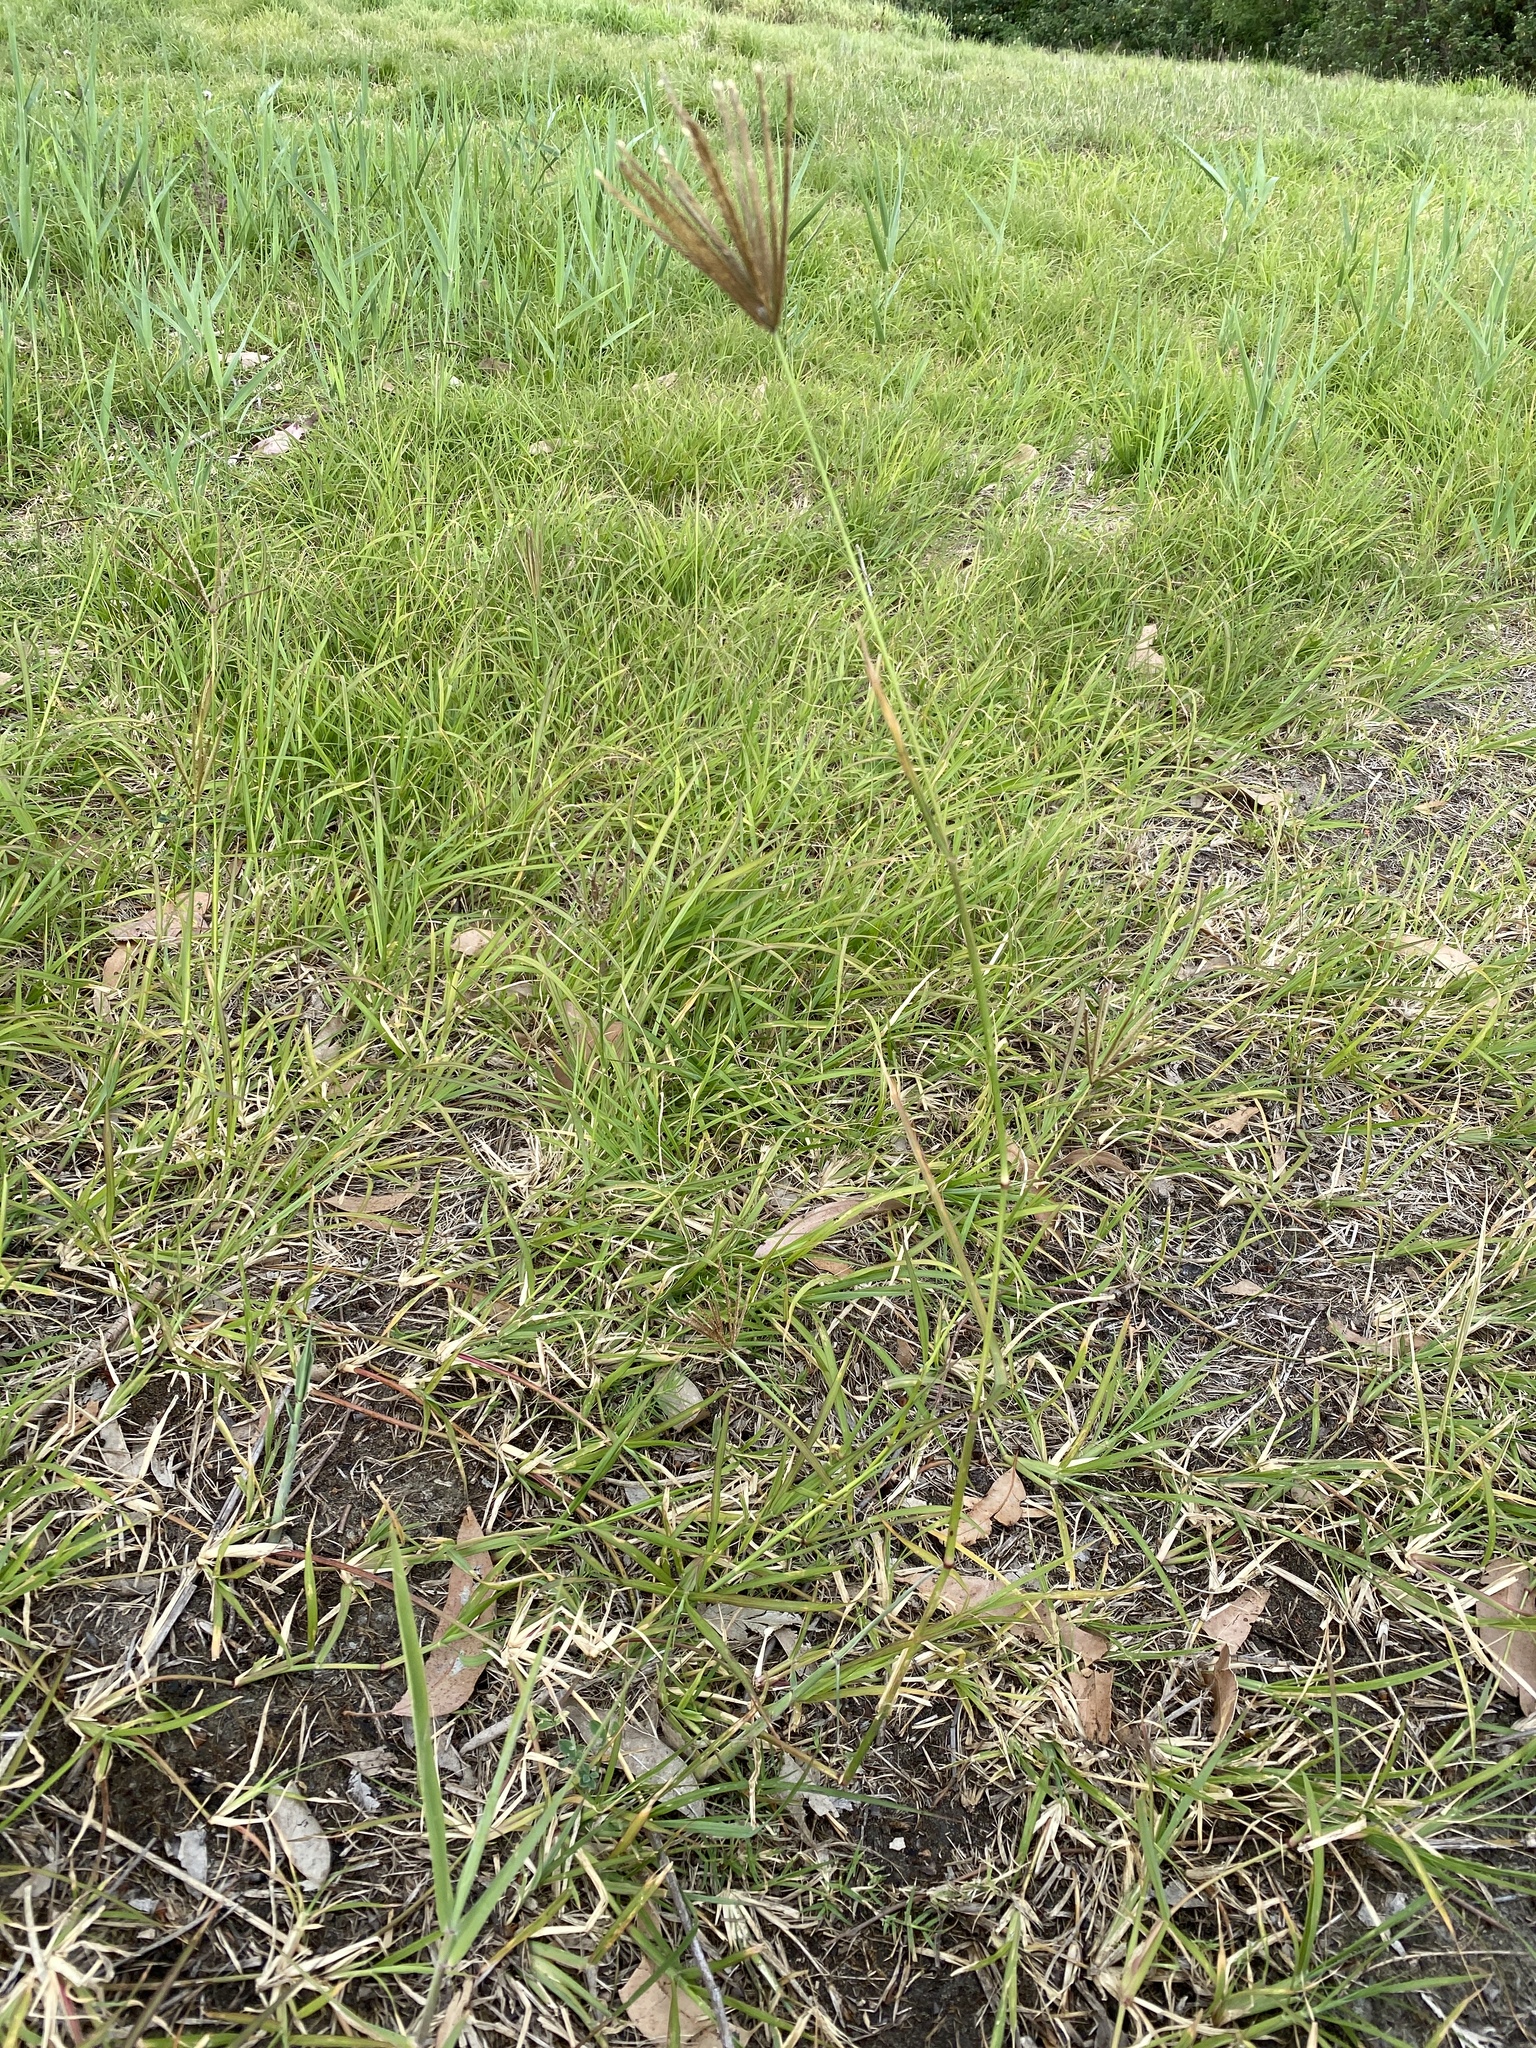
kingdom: Plantae
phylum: Tracheophyta
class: Liliopsida
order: Poales
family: Poaceae
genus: Chloris
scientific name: Chloris gayana
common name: Rhodes grass
